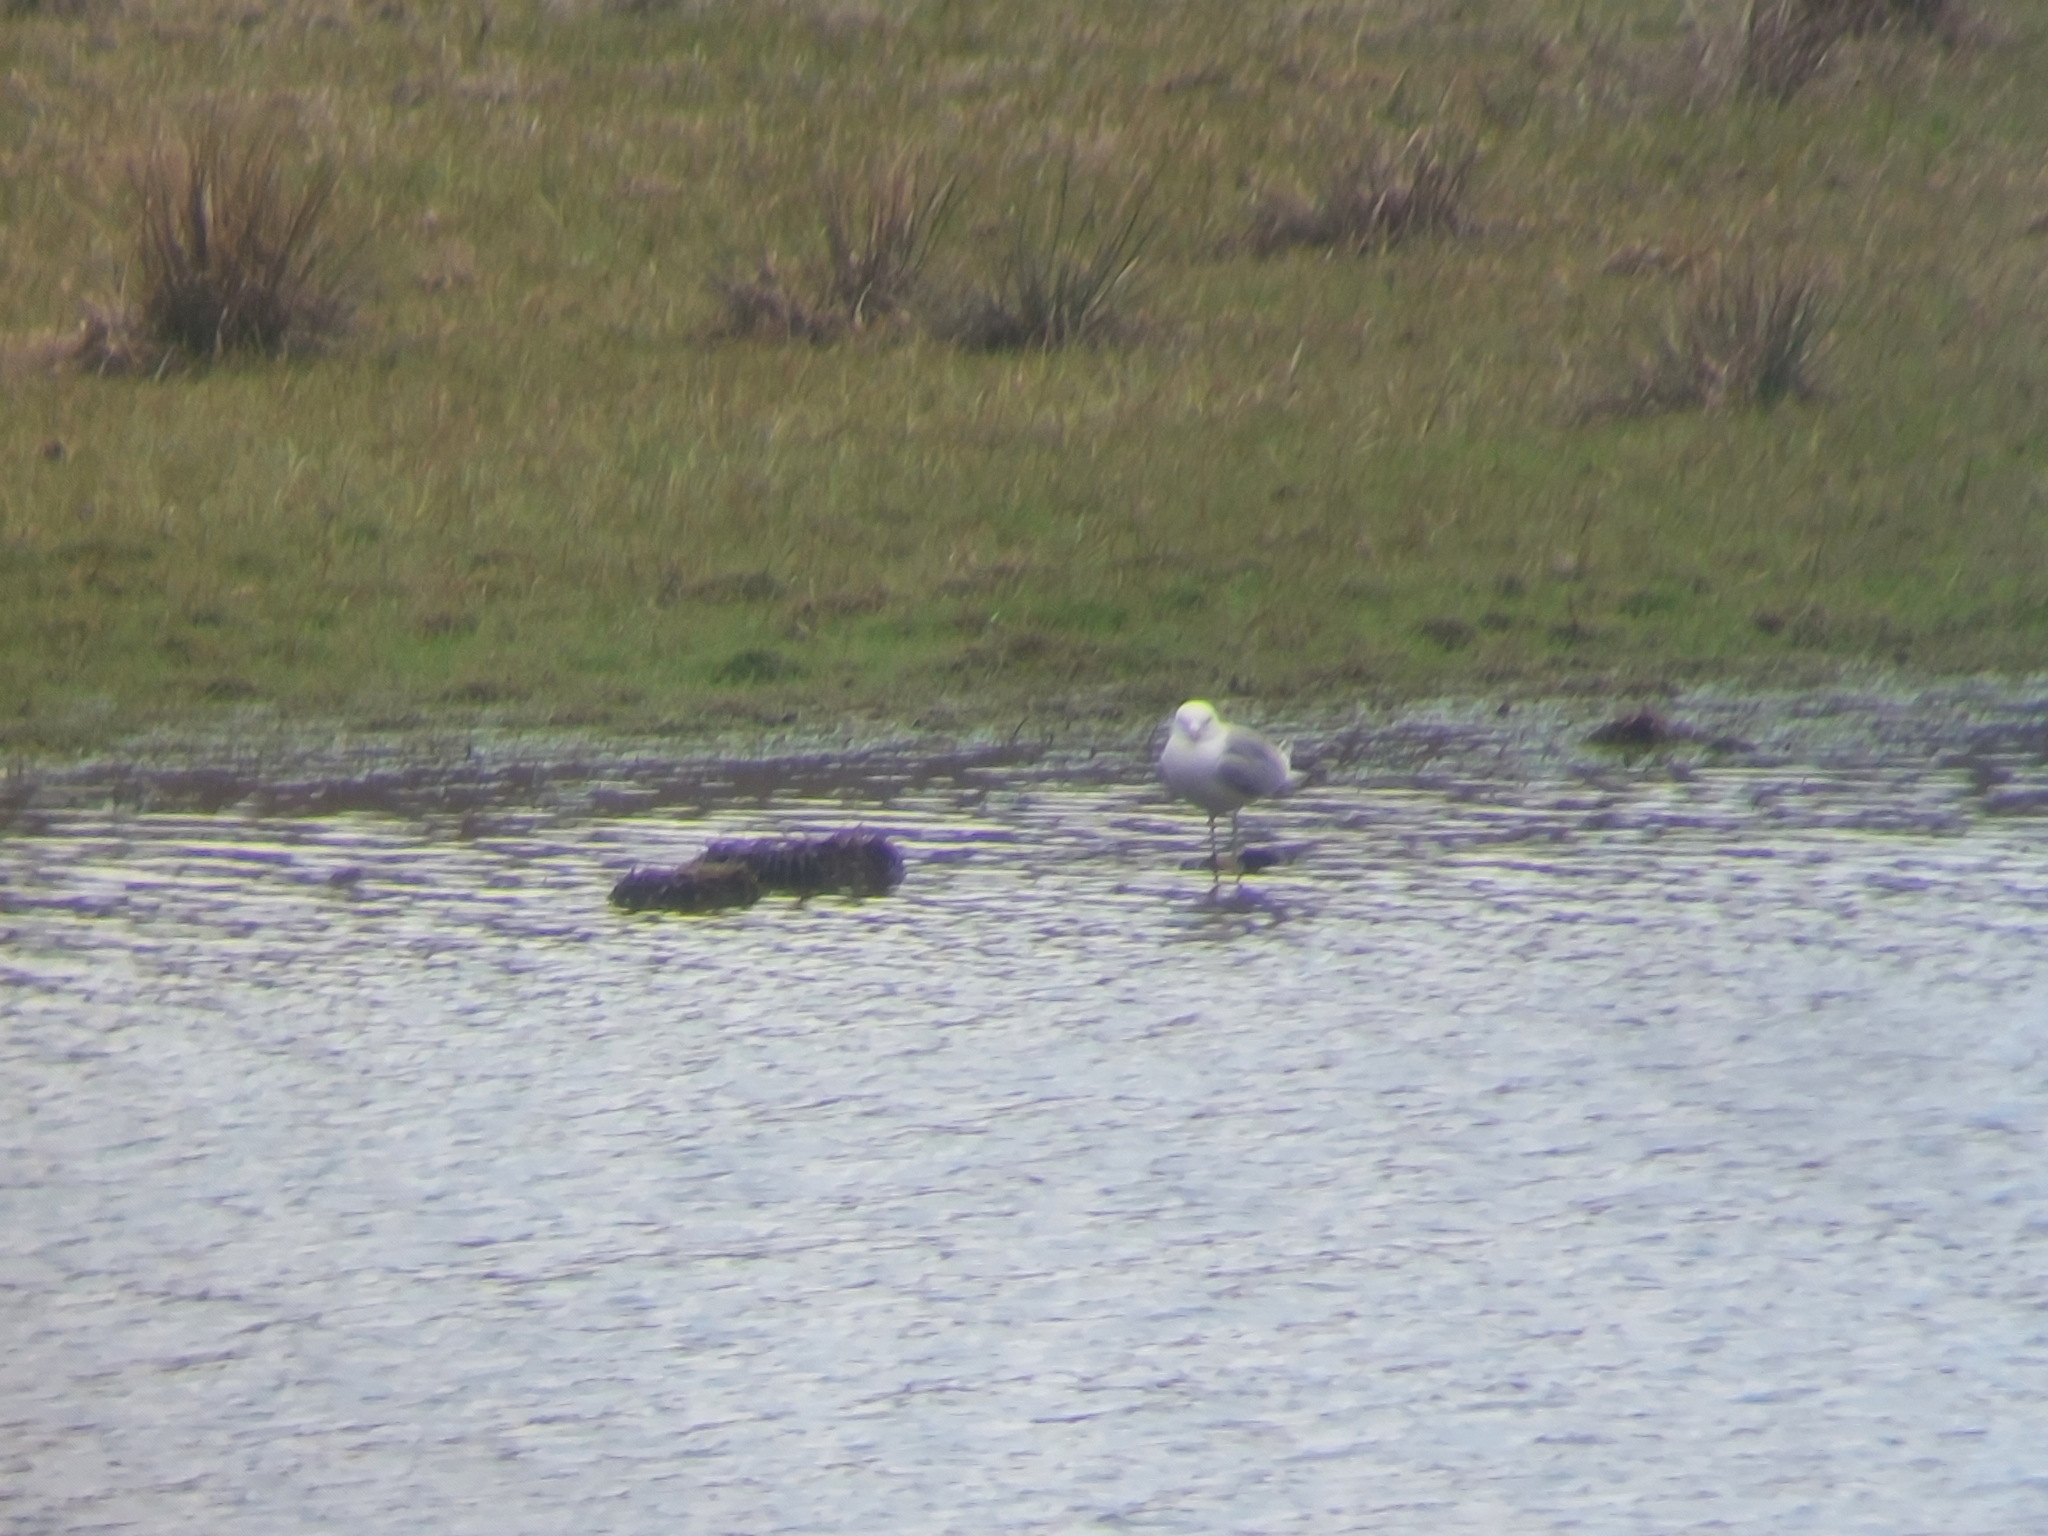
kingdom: Animalia
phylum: Chordata
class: Aves
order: Charadriiformes
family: Laridae
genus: Larus
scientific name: Larus canus
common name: Mew gull
